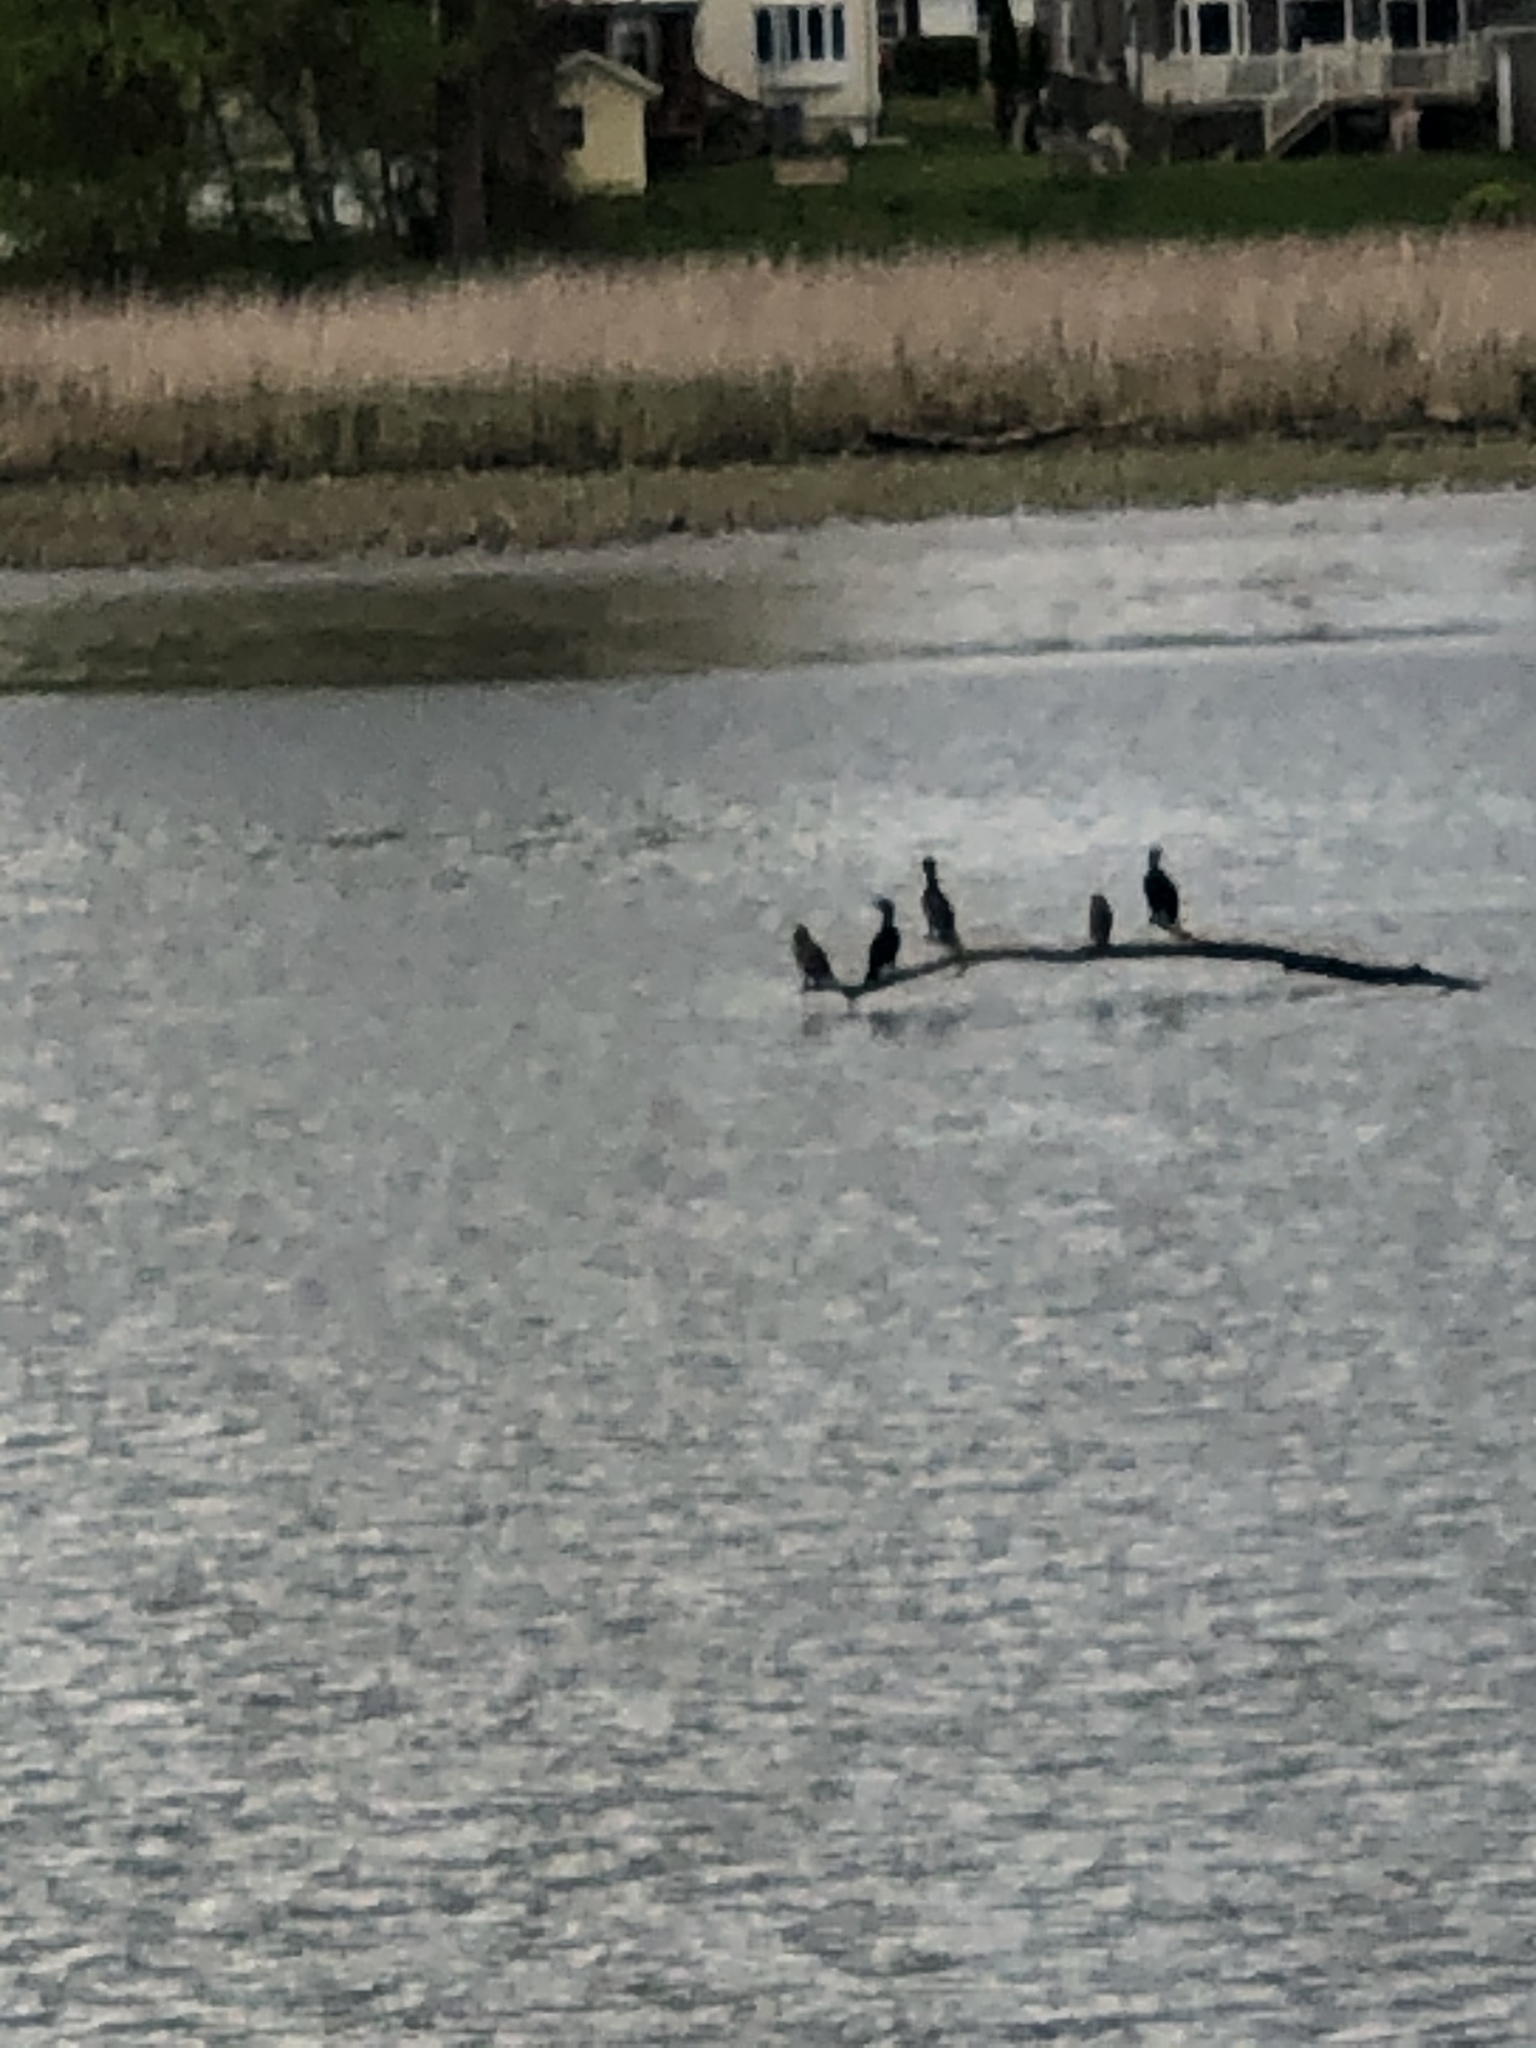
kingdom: Animalia
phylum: Chordata
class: Aves
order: Suliformes
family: Phalacrocoracidae
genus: Phalacrocorax
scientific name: Phalacrocorax auritus
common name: Double-crested cormorant
